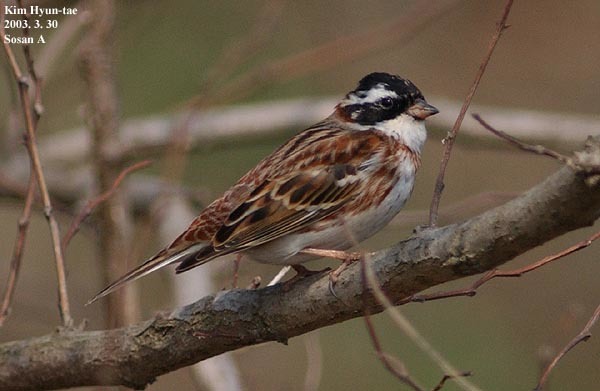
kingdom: Animalia
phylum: Chordata
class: Aves
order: Passeriformes
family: Emberizidae
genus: Emberiza
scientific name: Emberiza rustica
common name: Rustic bunting
